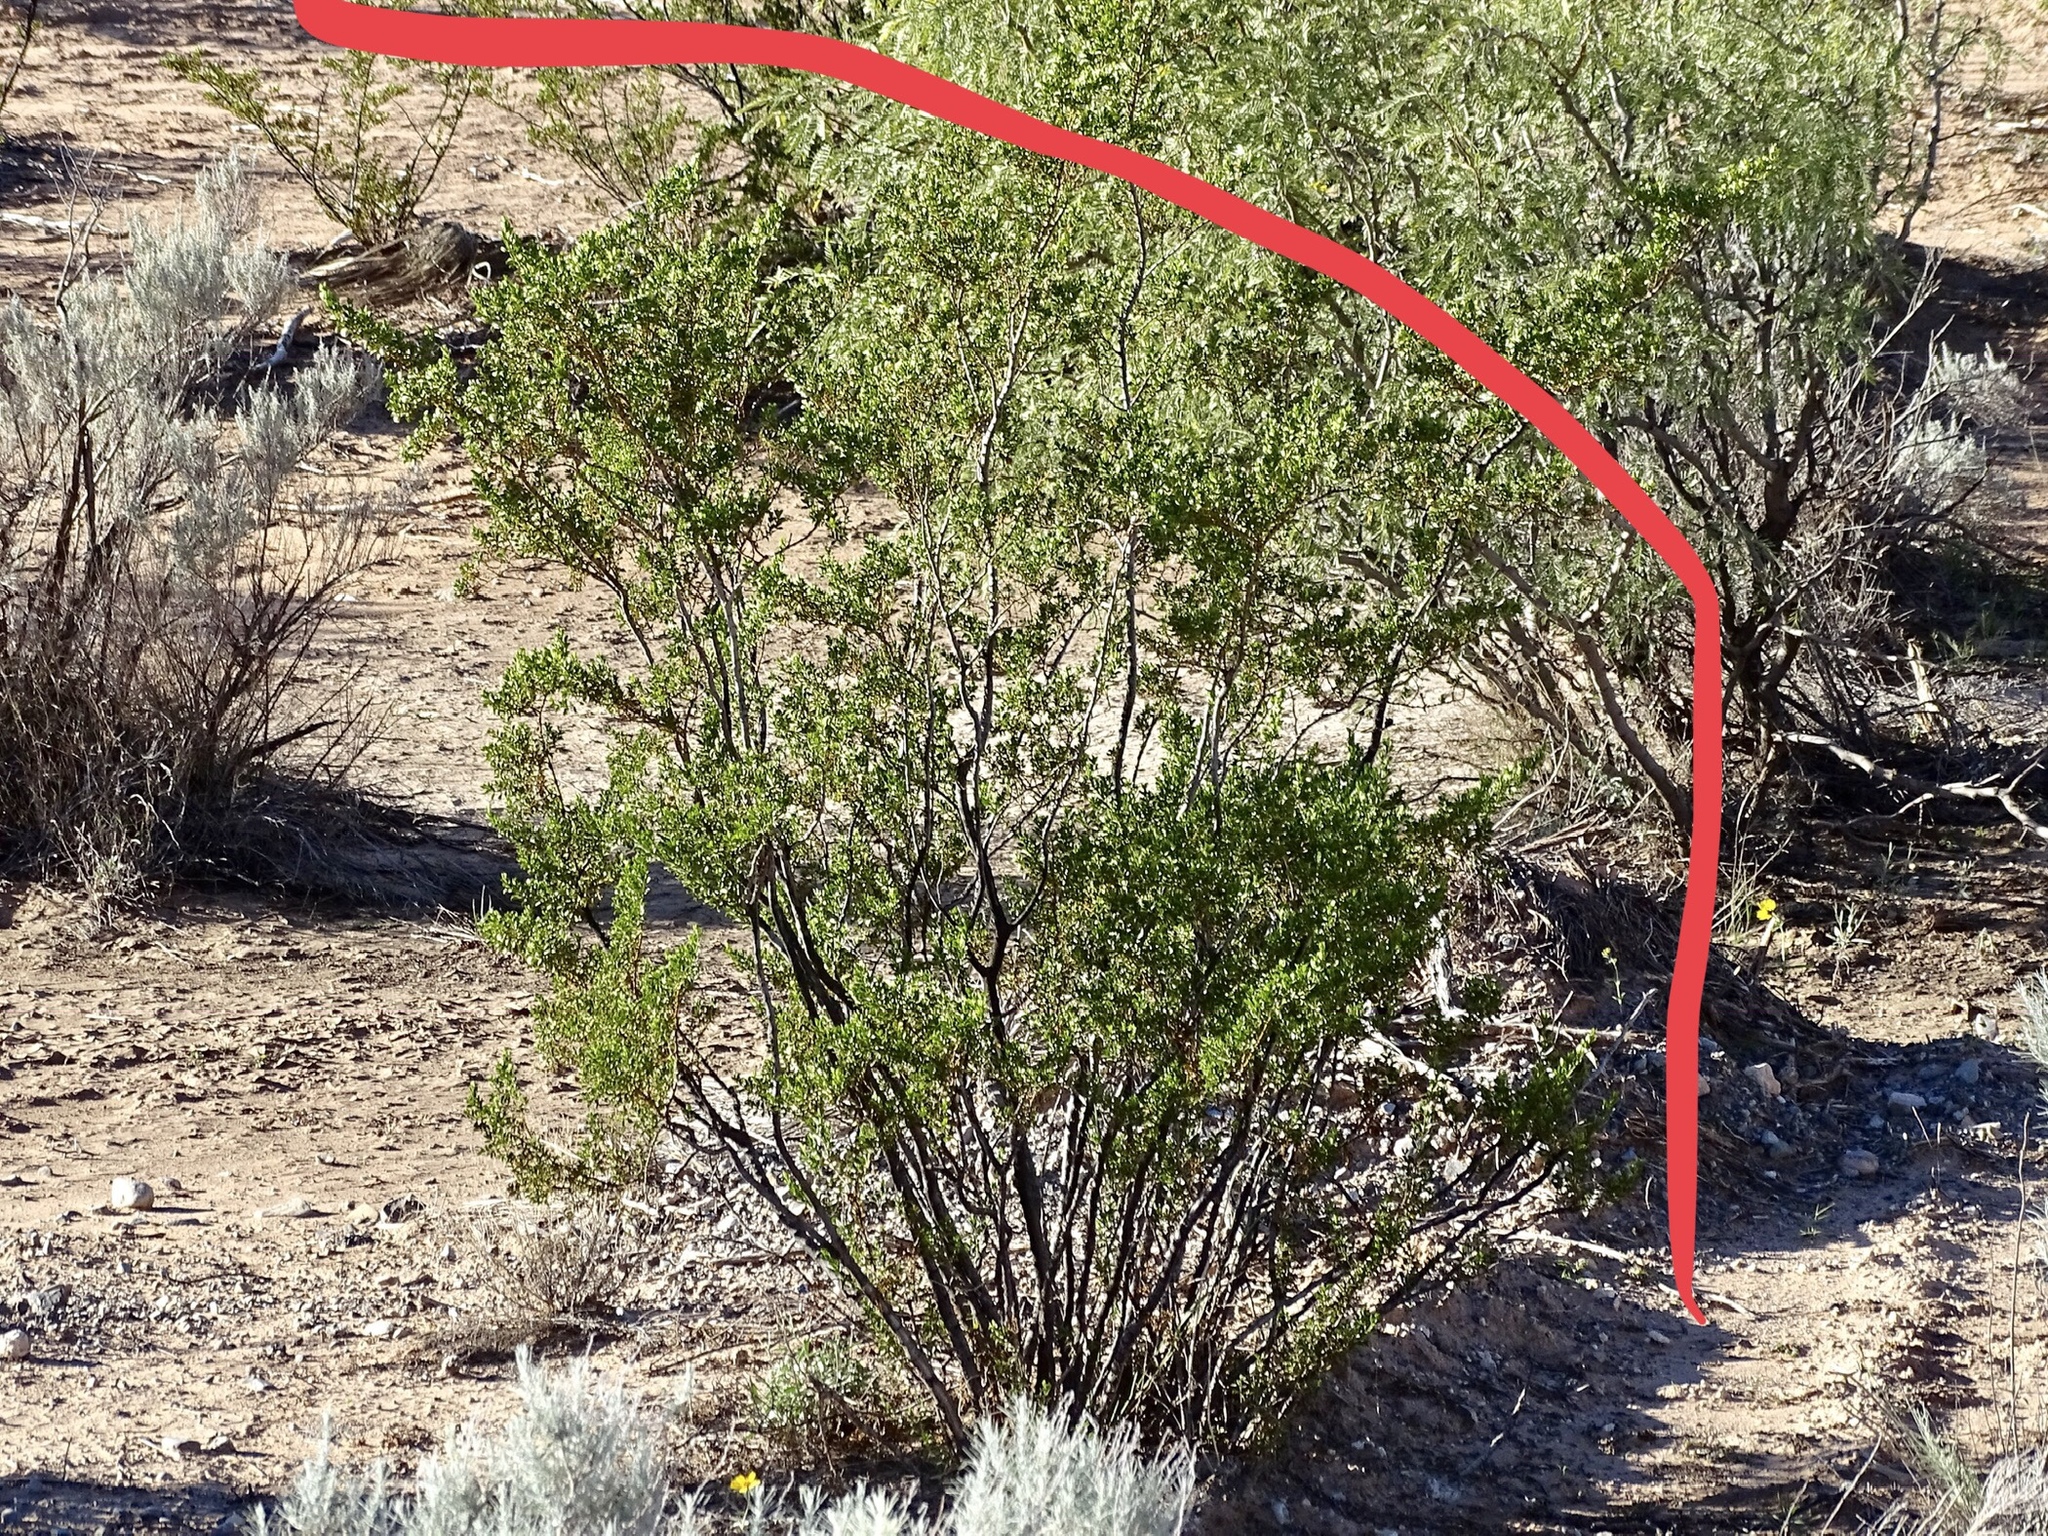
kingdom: Plantae
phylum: Tracheophyta
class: Magnoliopsida
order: Zygophyllales
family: Zygophyllaceae
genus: Larrea
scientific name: Larrea tridentata
